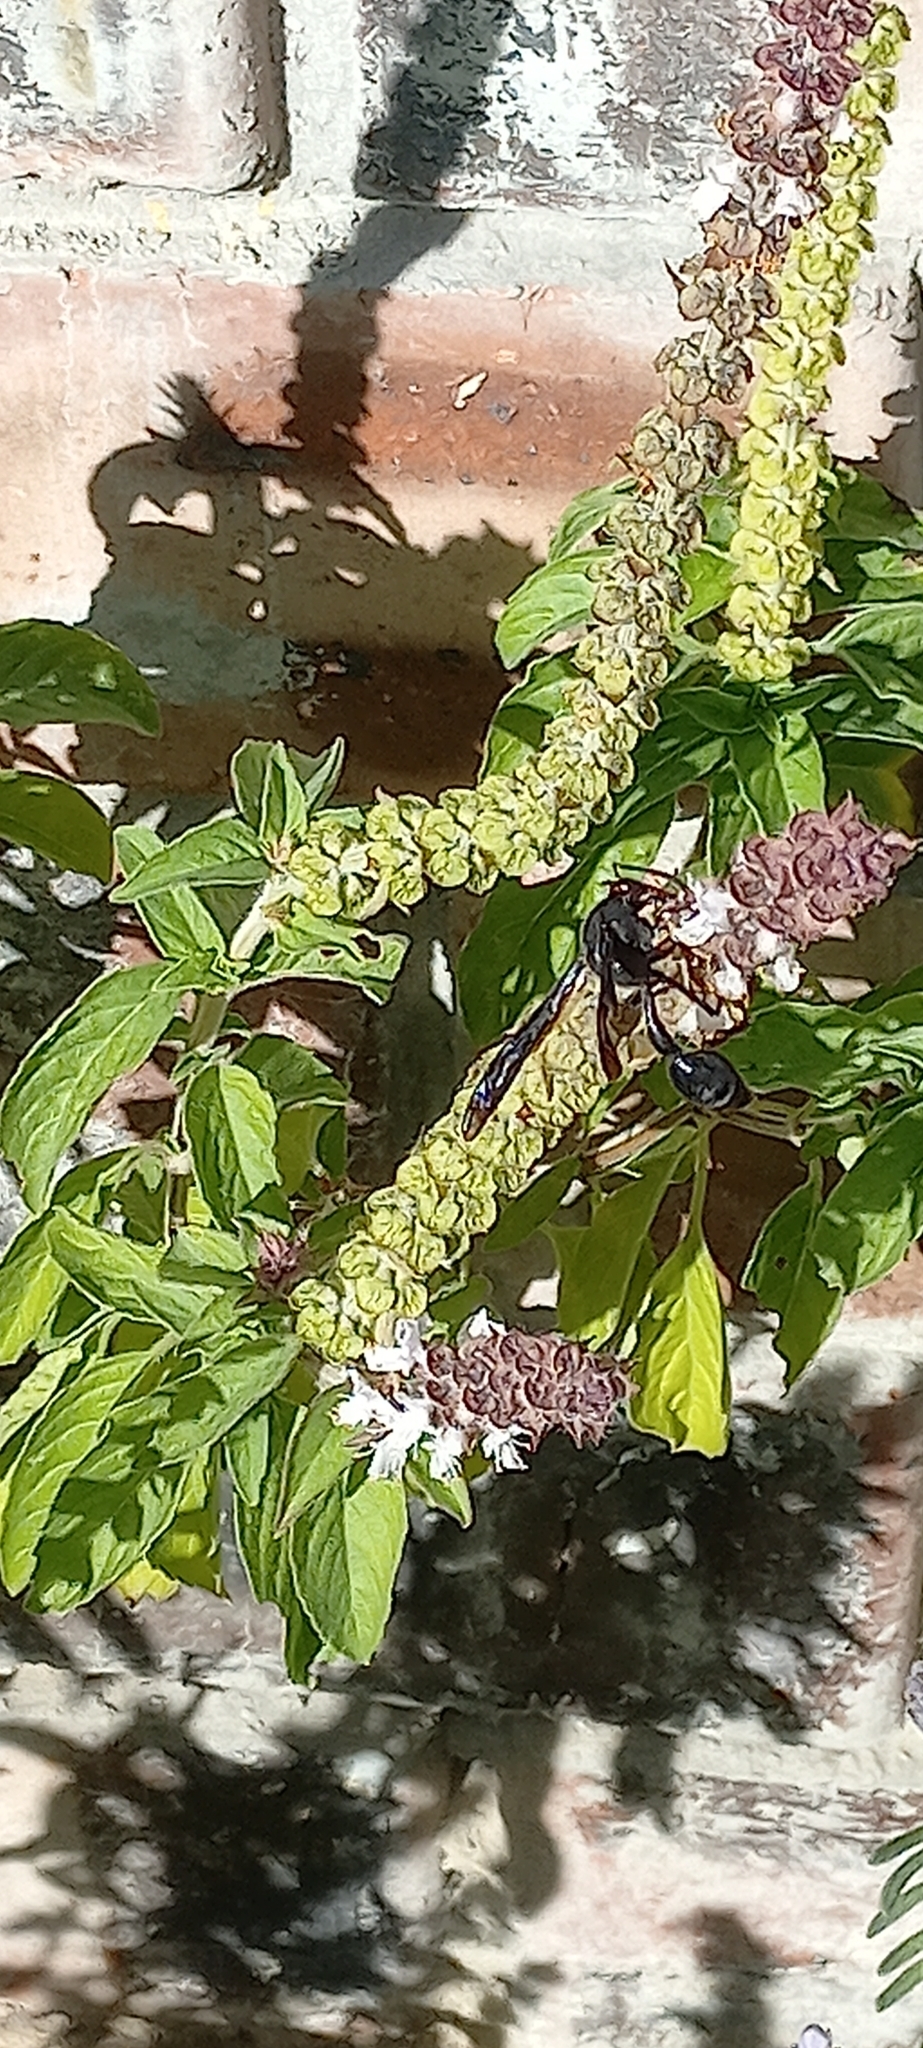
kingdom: Animalia
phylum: Arthropoda
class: Insecta
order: Hymenoptera
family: Eumenidae
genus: Delta
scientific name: Delta bonellii
